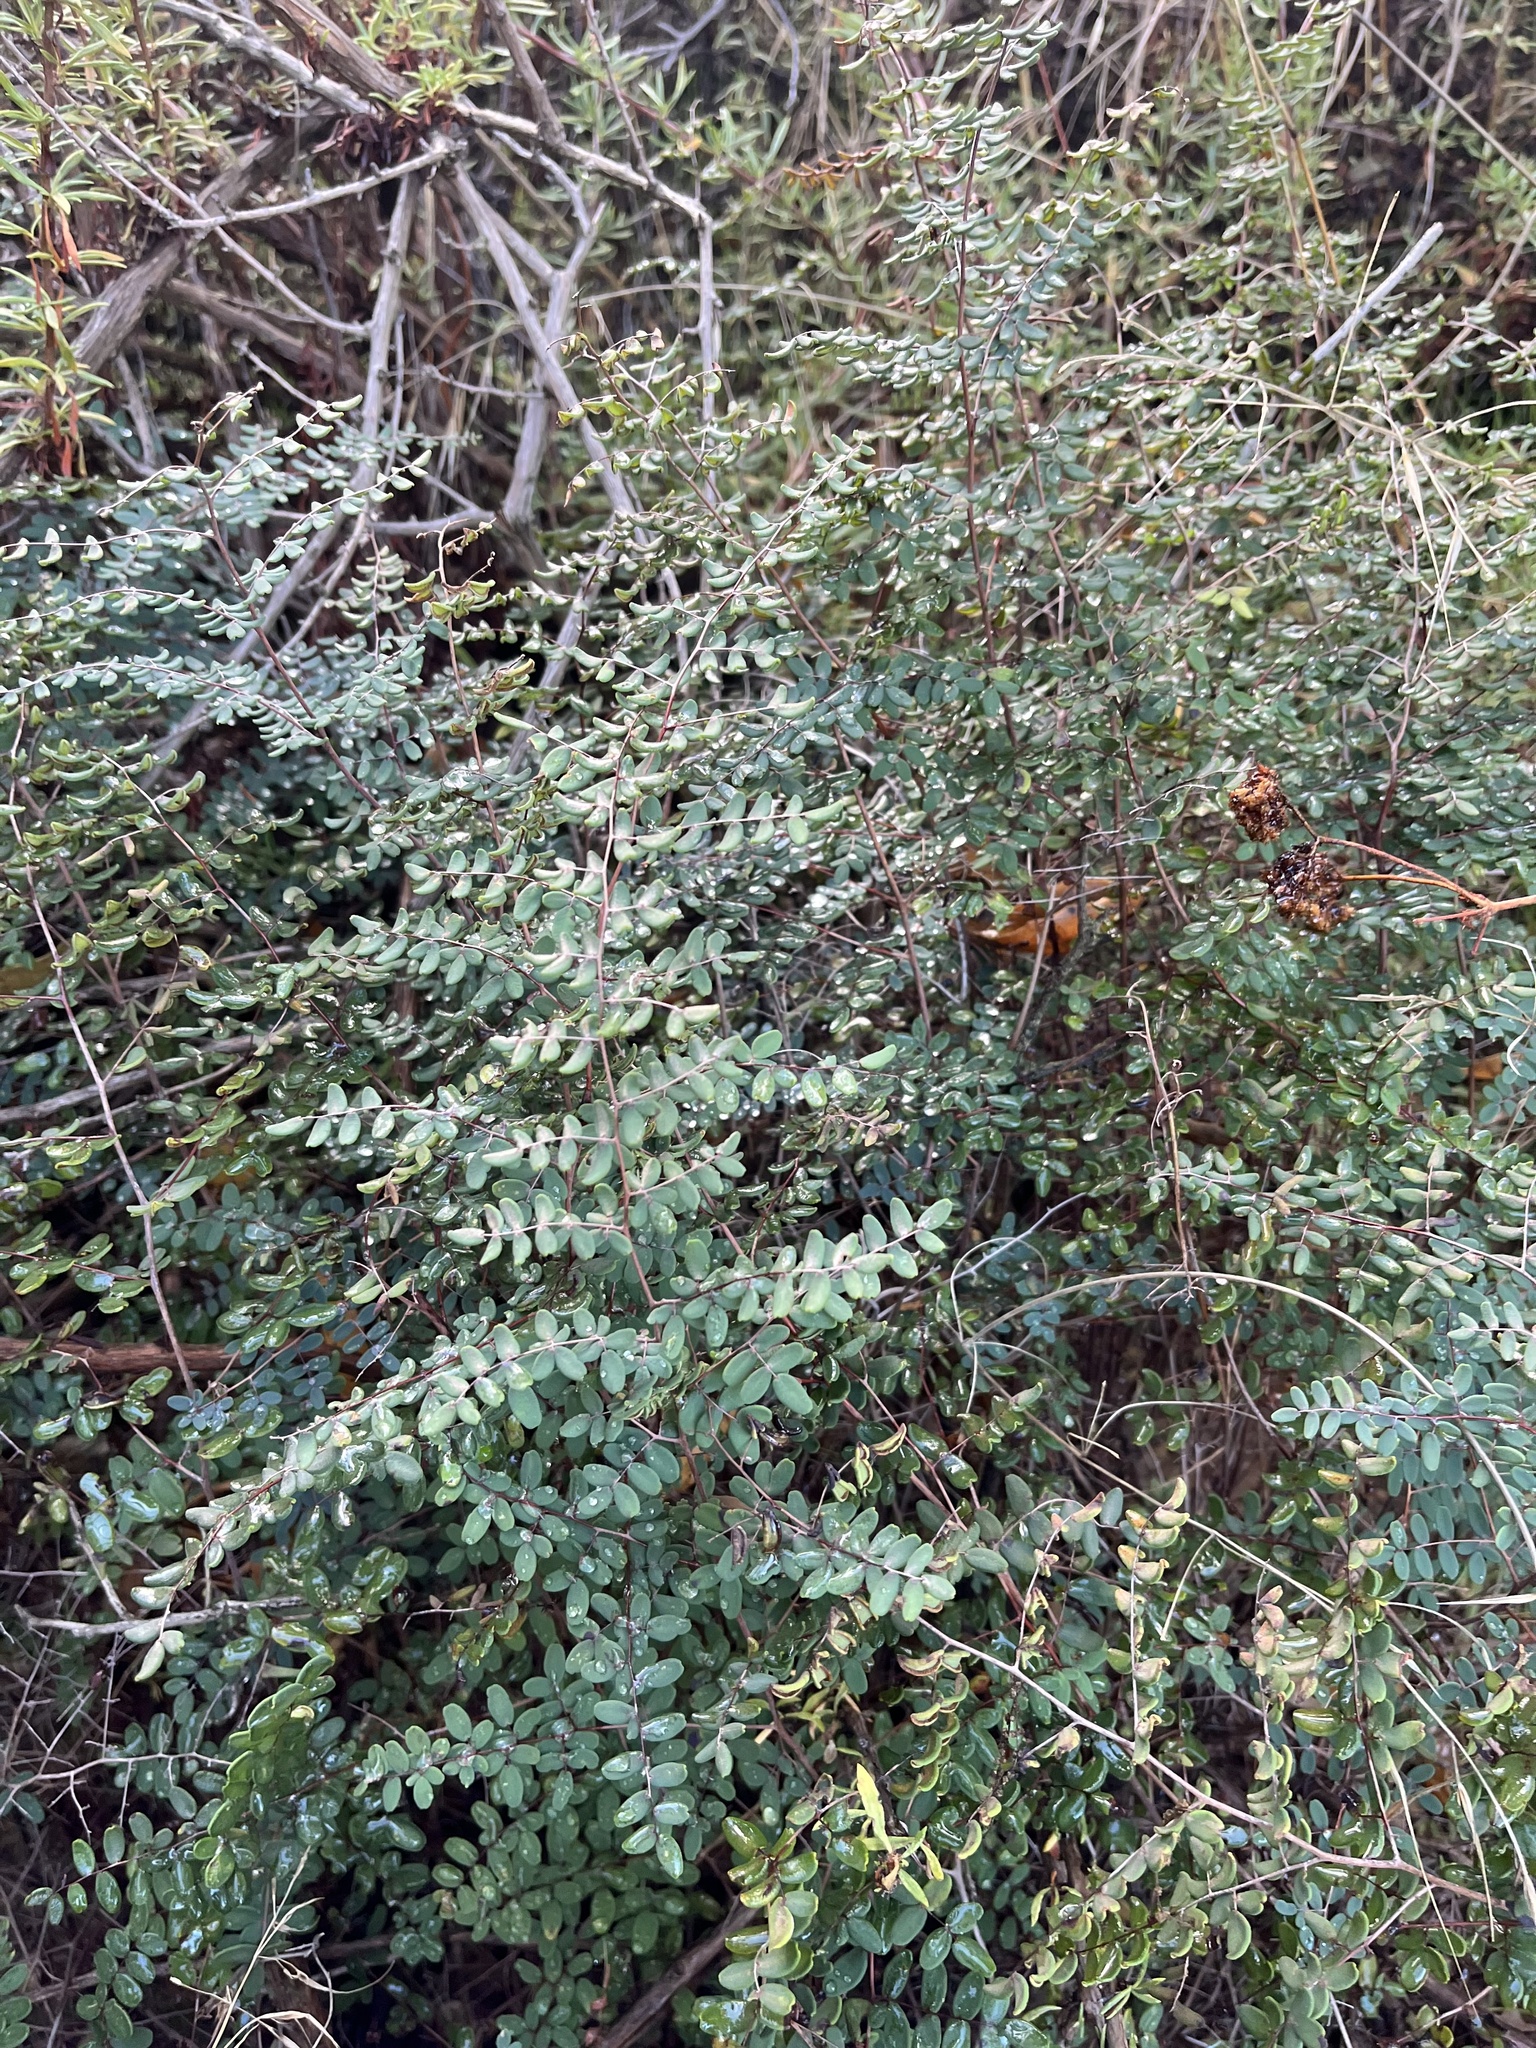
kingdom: Plantae
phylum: Tracheophyta
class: Polypodiopsida
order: Polypodiales
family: Pteridaceae
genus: Pellaea
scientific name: Pellaea andromedifolia
